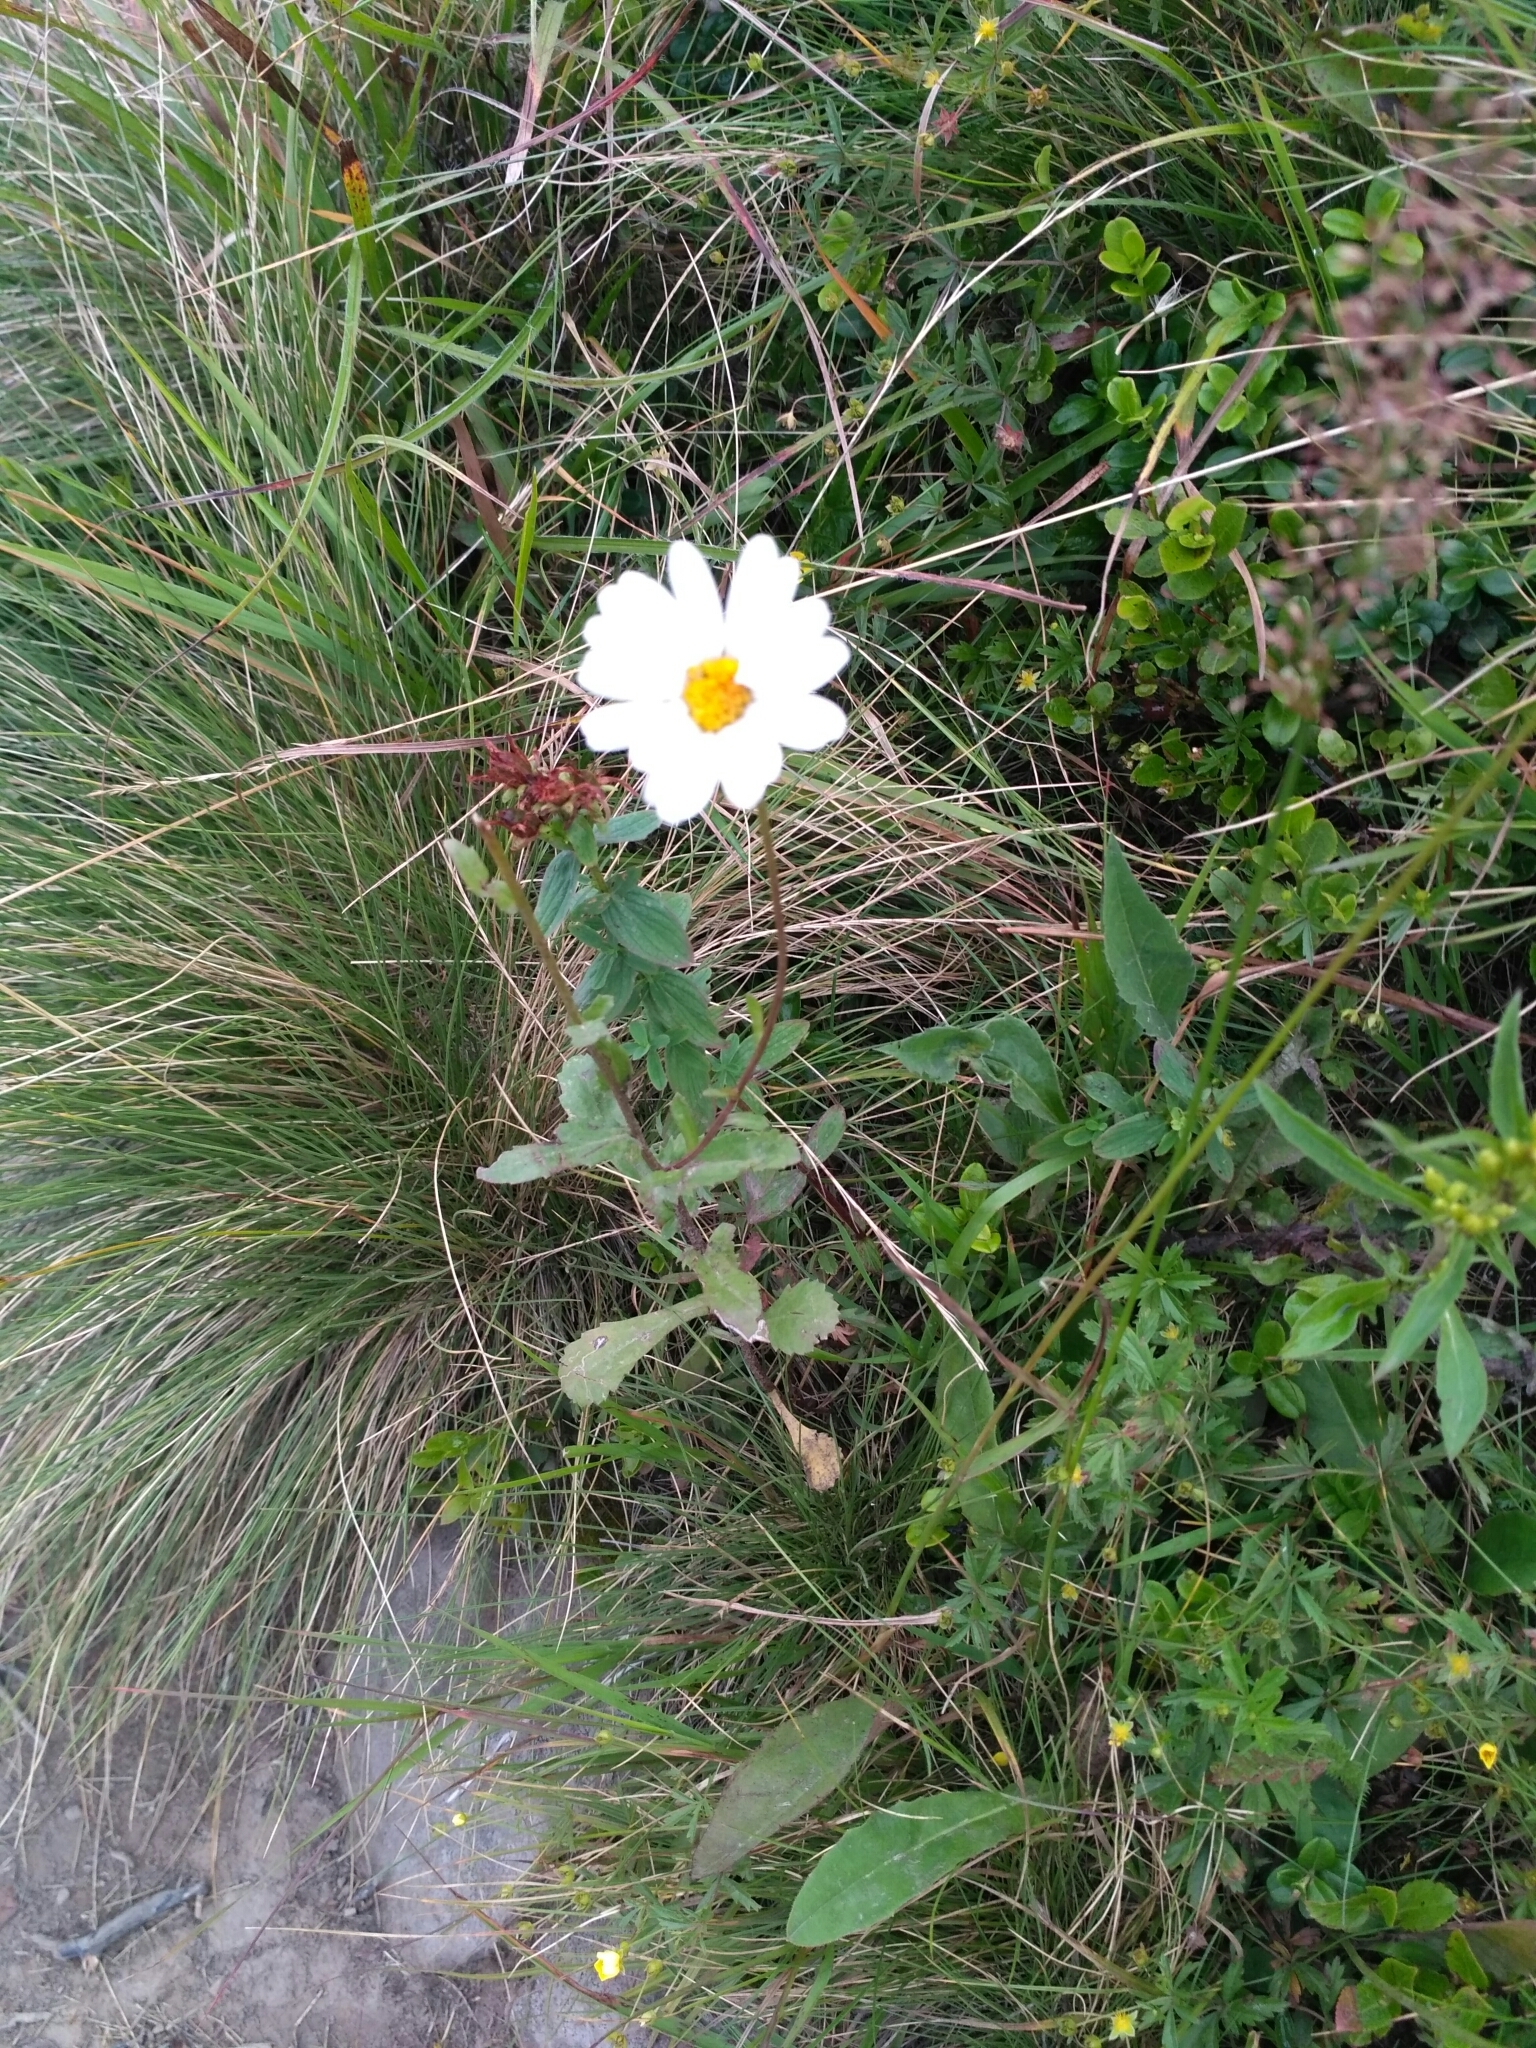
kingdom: Plantae
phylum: Tracheophyta
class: Magnoliopsida
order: Asterales
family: Asteraceae
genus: Leucanthemum
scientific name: Leucanthemum vulgare
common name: Oxeye daisy
